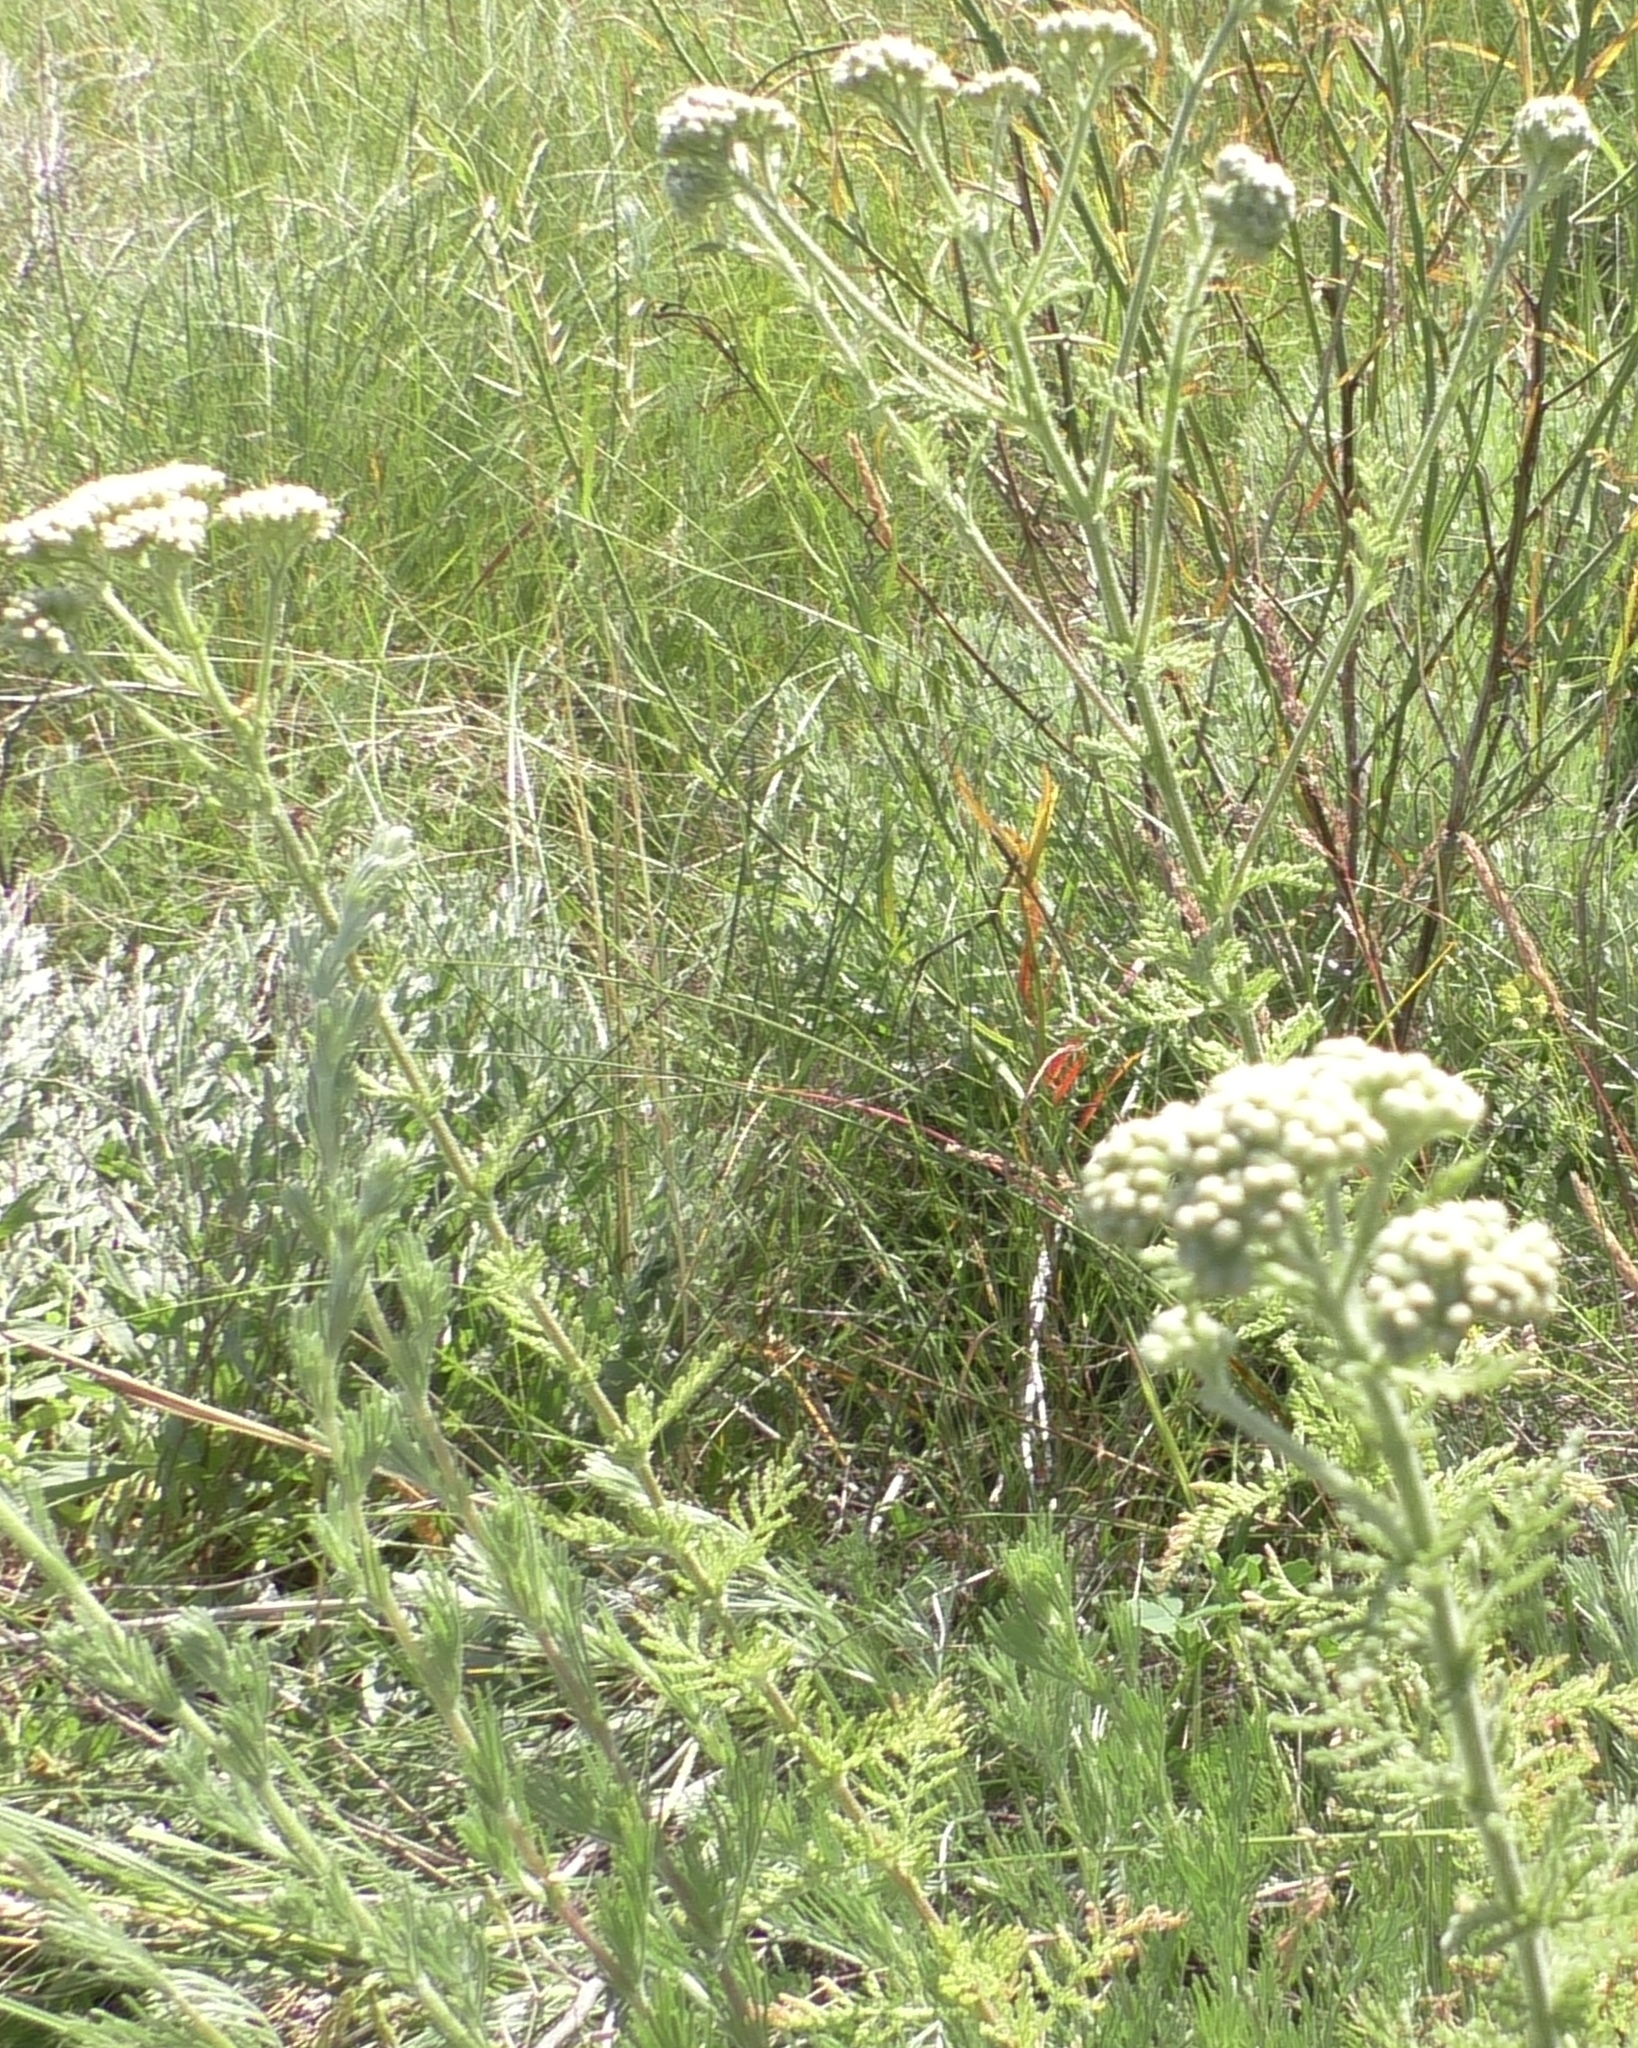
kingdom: Plantae
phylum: Tracheophyta
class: Magnoliopsida
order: Asterales
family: Asteraceae
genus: Achillea
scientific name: Achillea nobilis
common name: Noble yarrow
